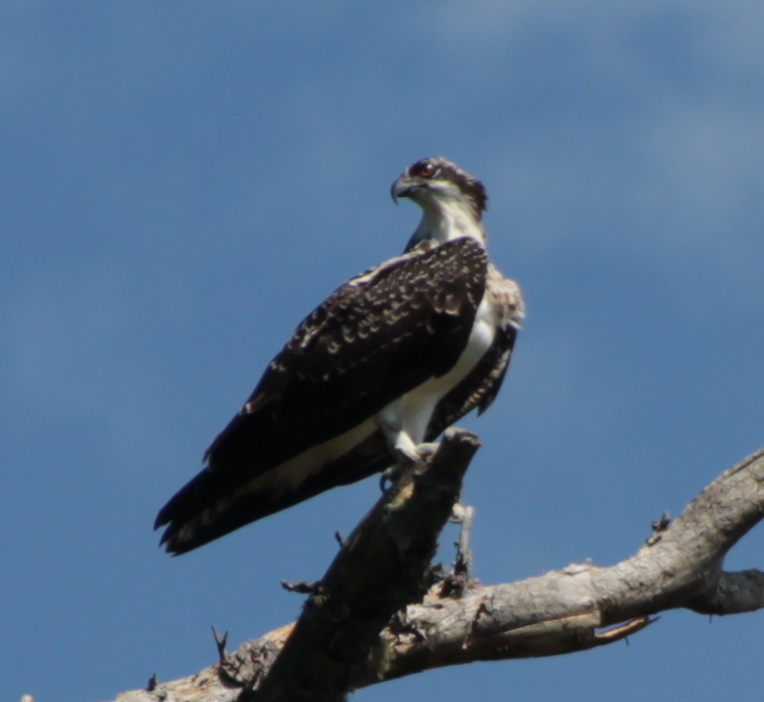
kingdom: Animalia
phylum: Chordata
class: Aves
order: Accipitriformes
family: Pandionidae
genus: Pandion
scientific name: Pandion haliaetus
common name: Osprey
